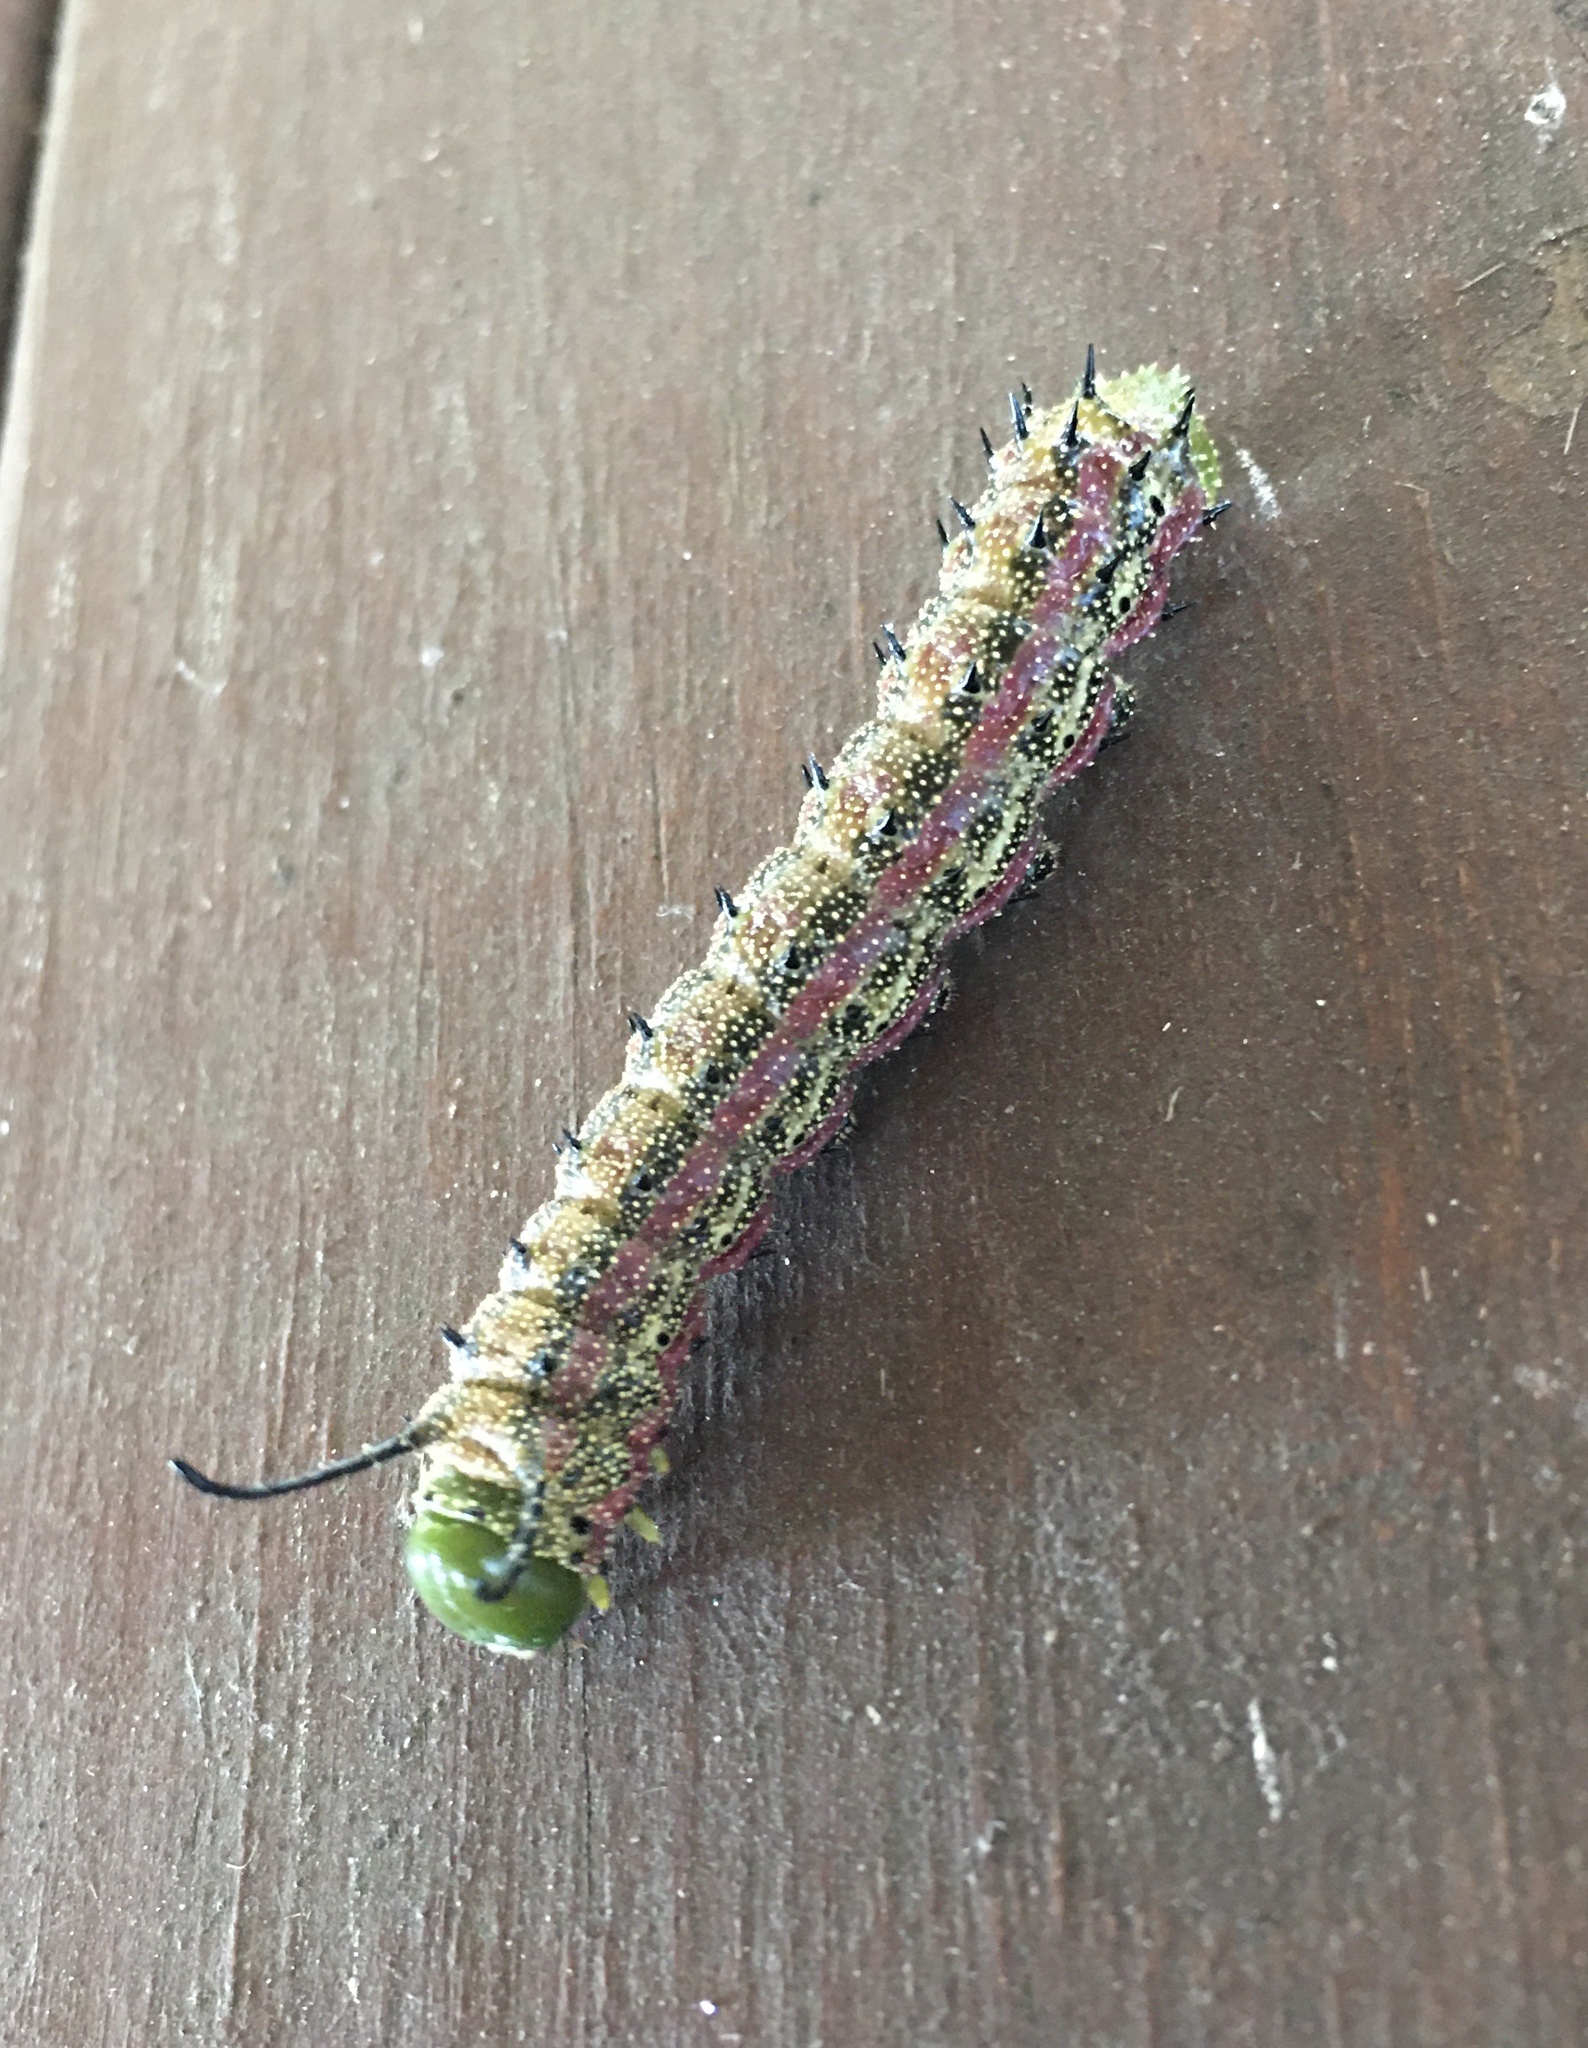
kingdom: Animalia
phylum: Arthropoda
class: Insecta
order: Lepidoptera
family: Saturniidae
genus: Anisota
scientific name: Anisota virginiensis
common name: Pink striped oakworm moth
